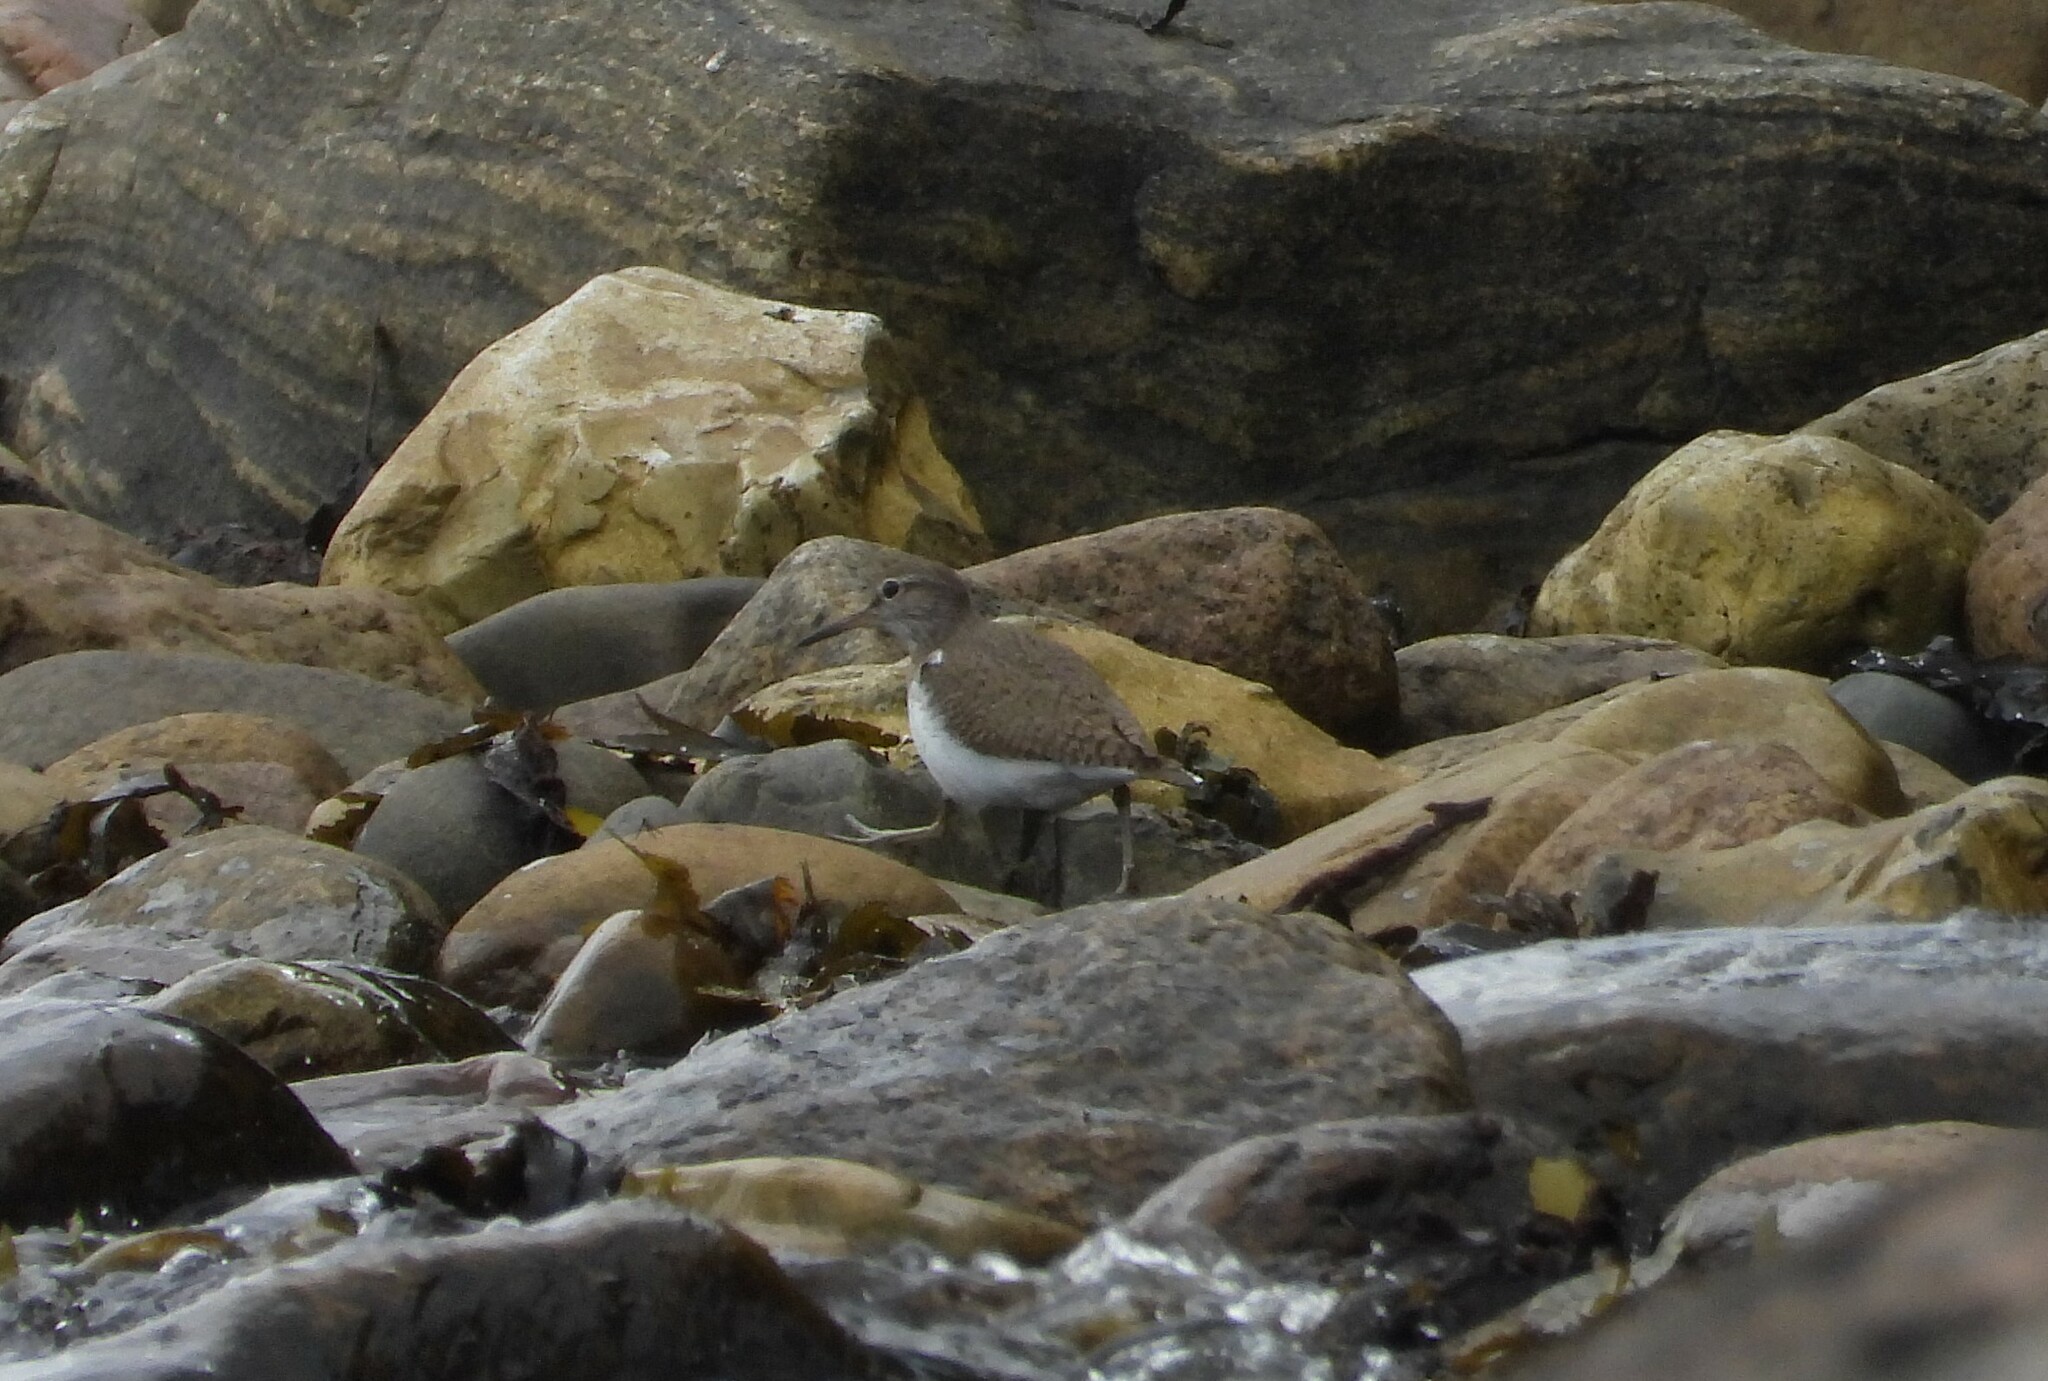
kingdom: Animalia
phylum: Chordata
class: Aves
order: Charadriiformes
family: Scolopacidae
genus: Actitis
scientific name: Actitis hypoleucos
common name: Common sandpiper
